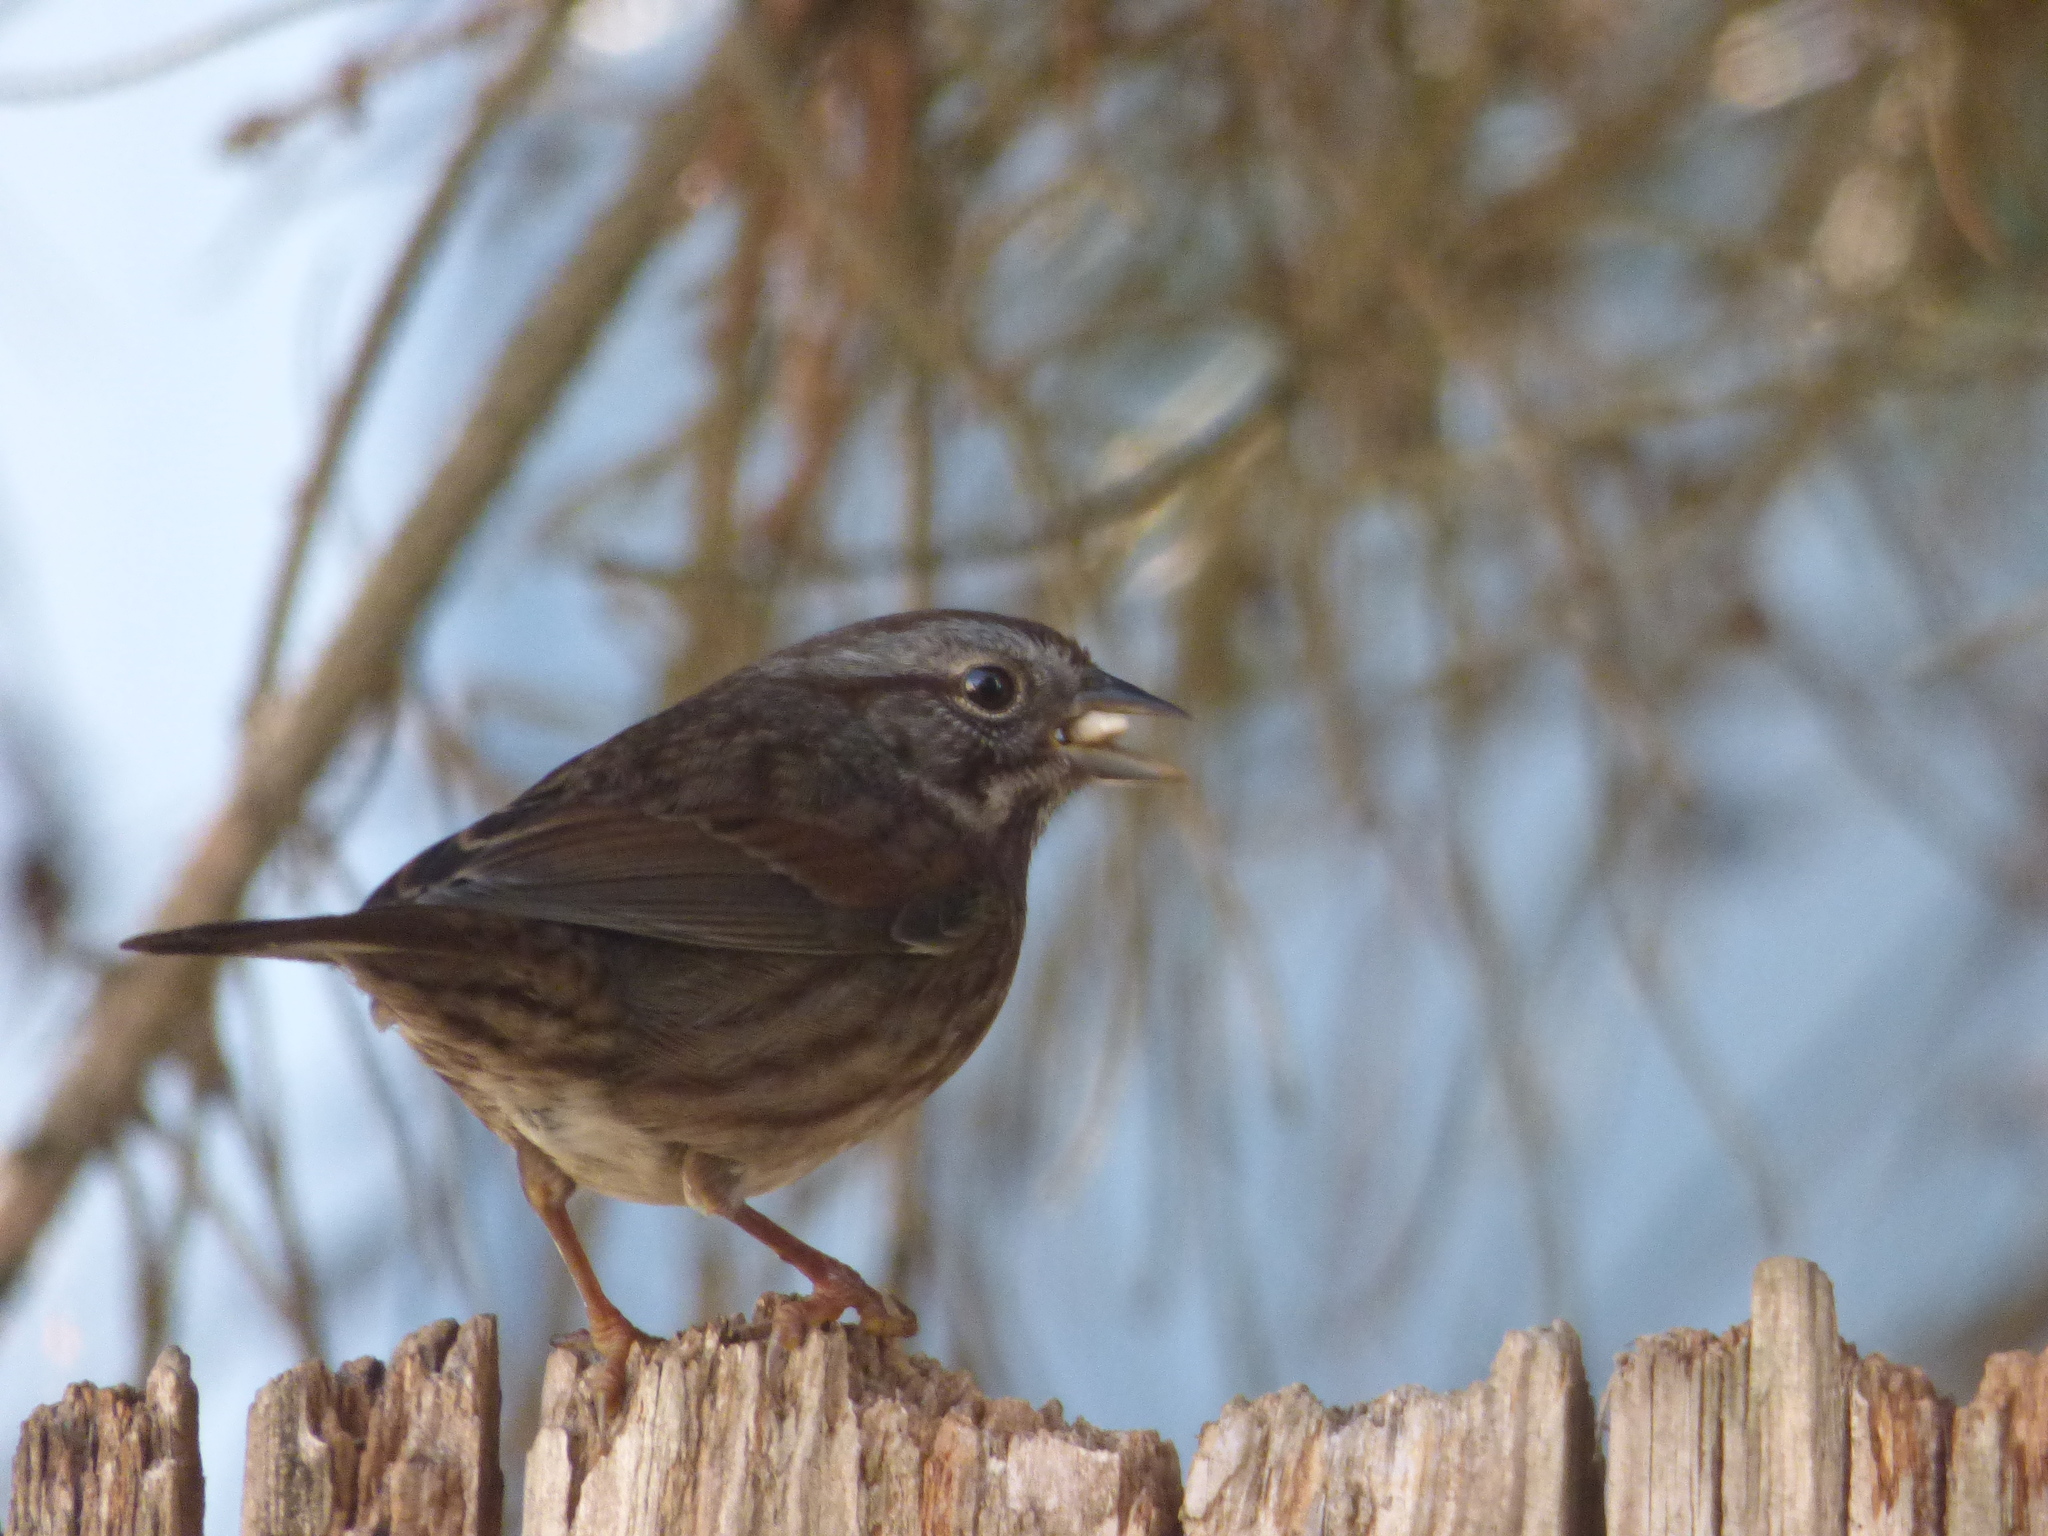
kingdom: Animalia
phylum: Chordata
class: Aves
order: Passeriformes
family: Passerellidae
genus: Melospiza
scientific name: Melospiza melodia
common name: Song sparrow
